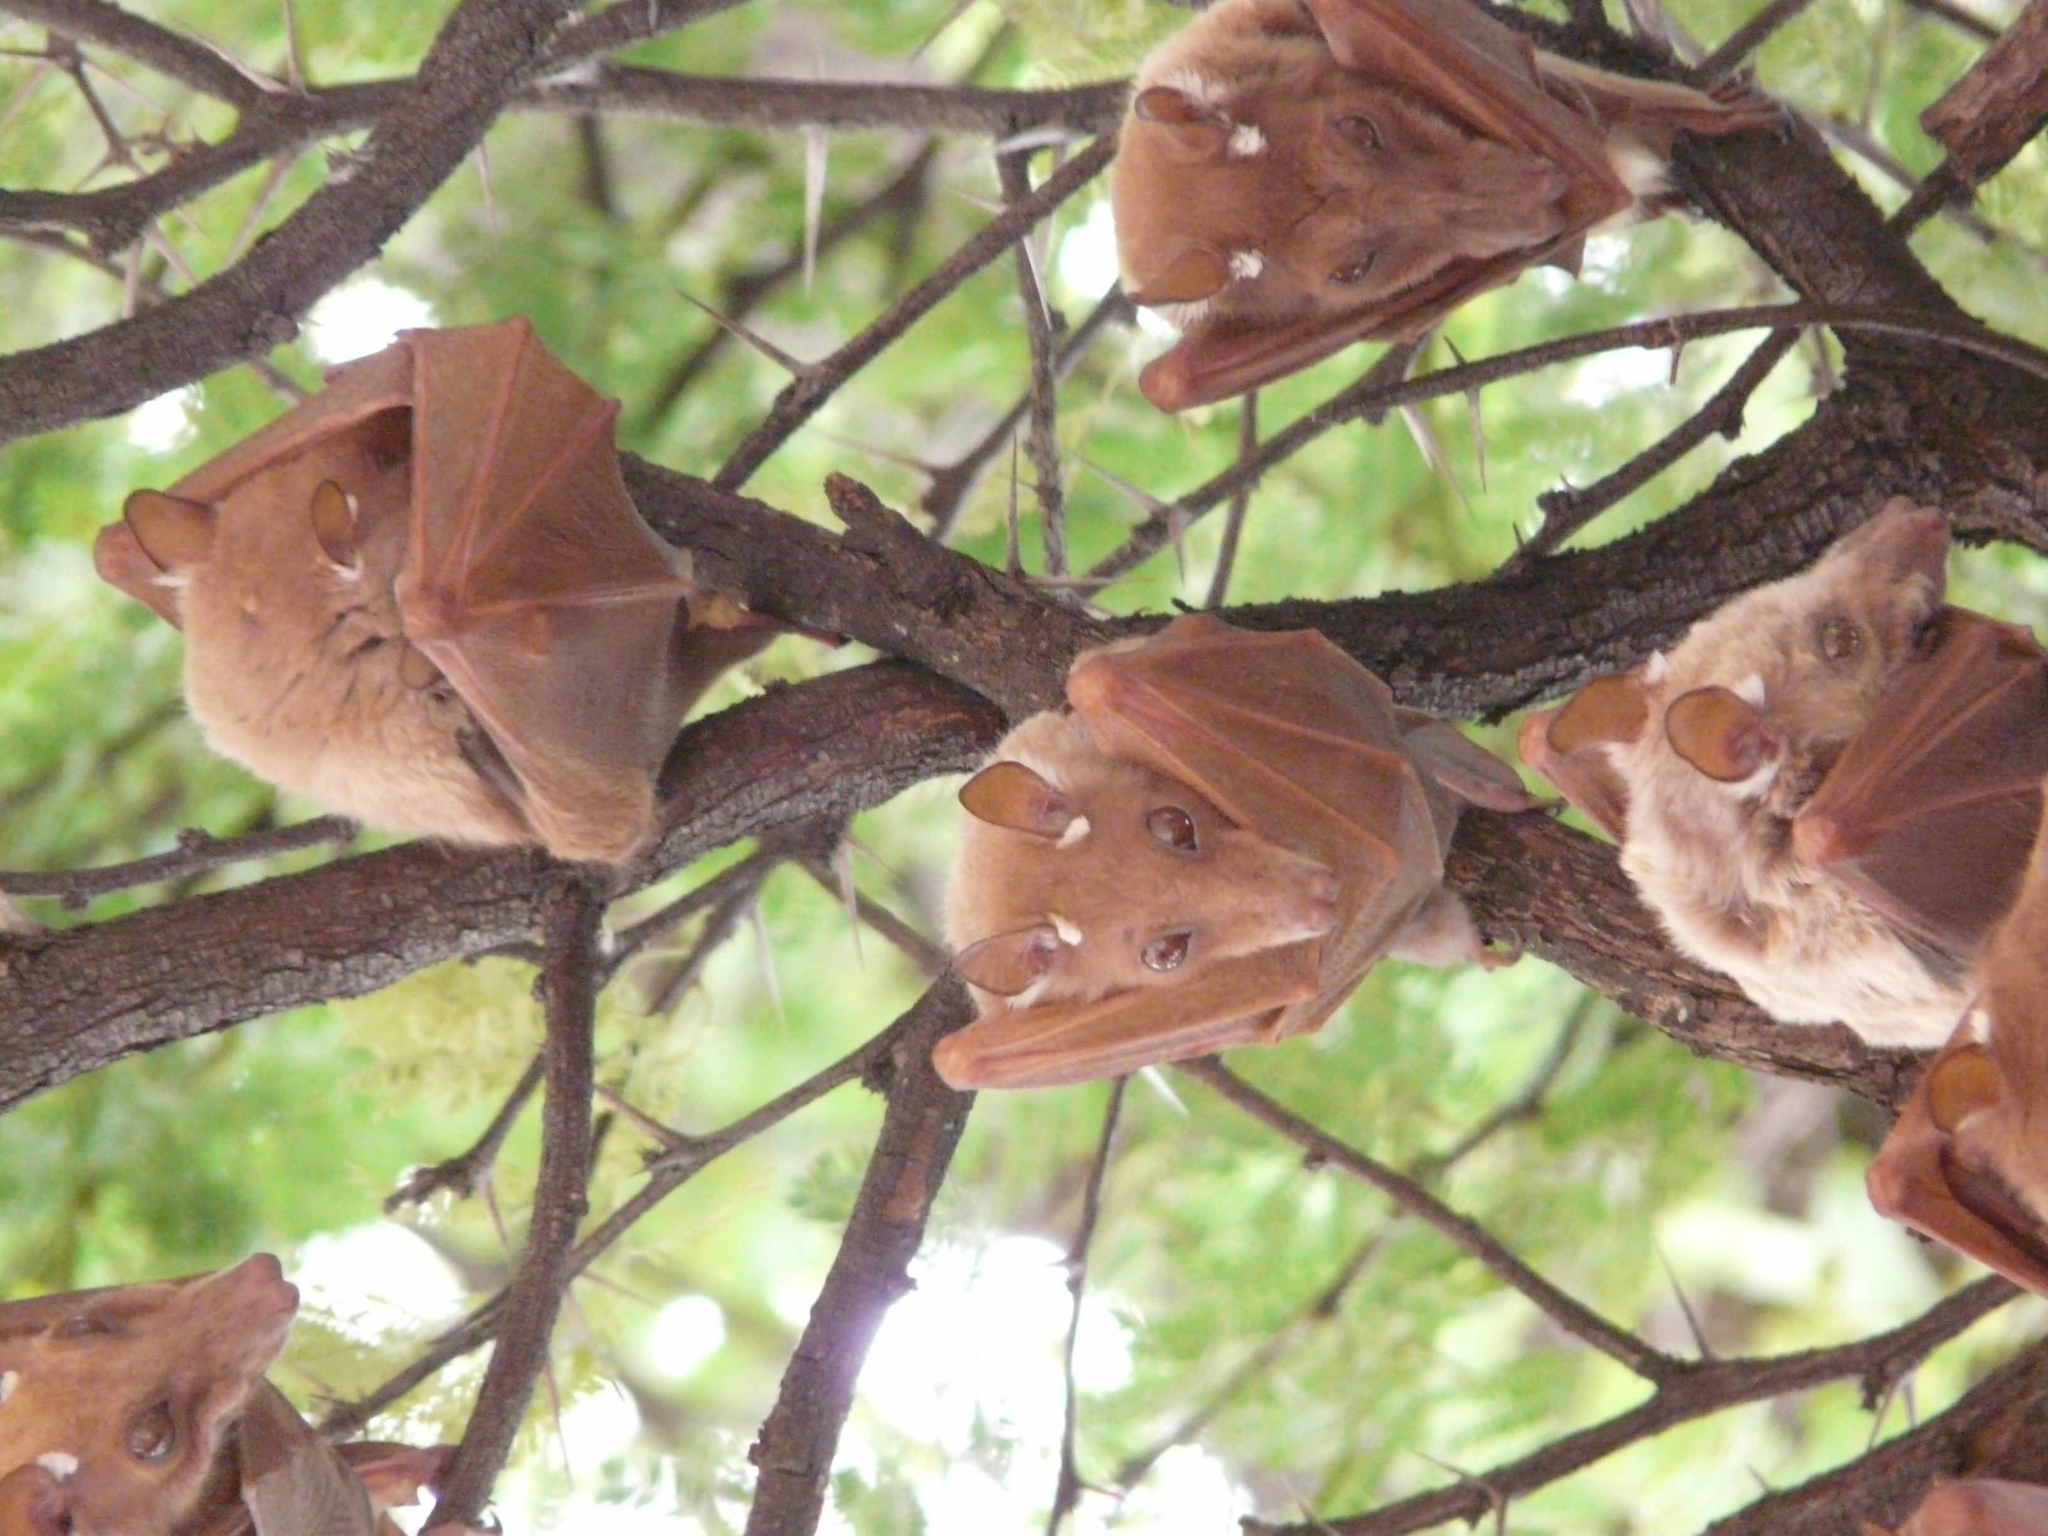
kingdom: Animalia
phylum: Chordata
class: Mammalia
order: Chiroptera
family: Pteropodidae
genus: Epomophorus
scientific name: Epomophorus crypturus
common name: Smaller epauletted fruit bat
